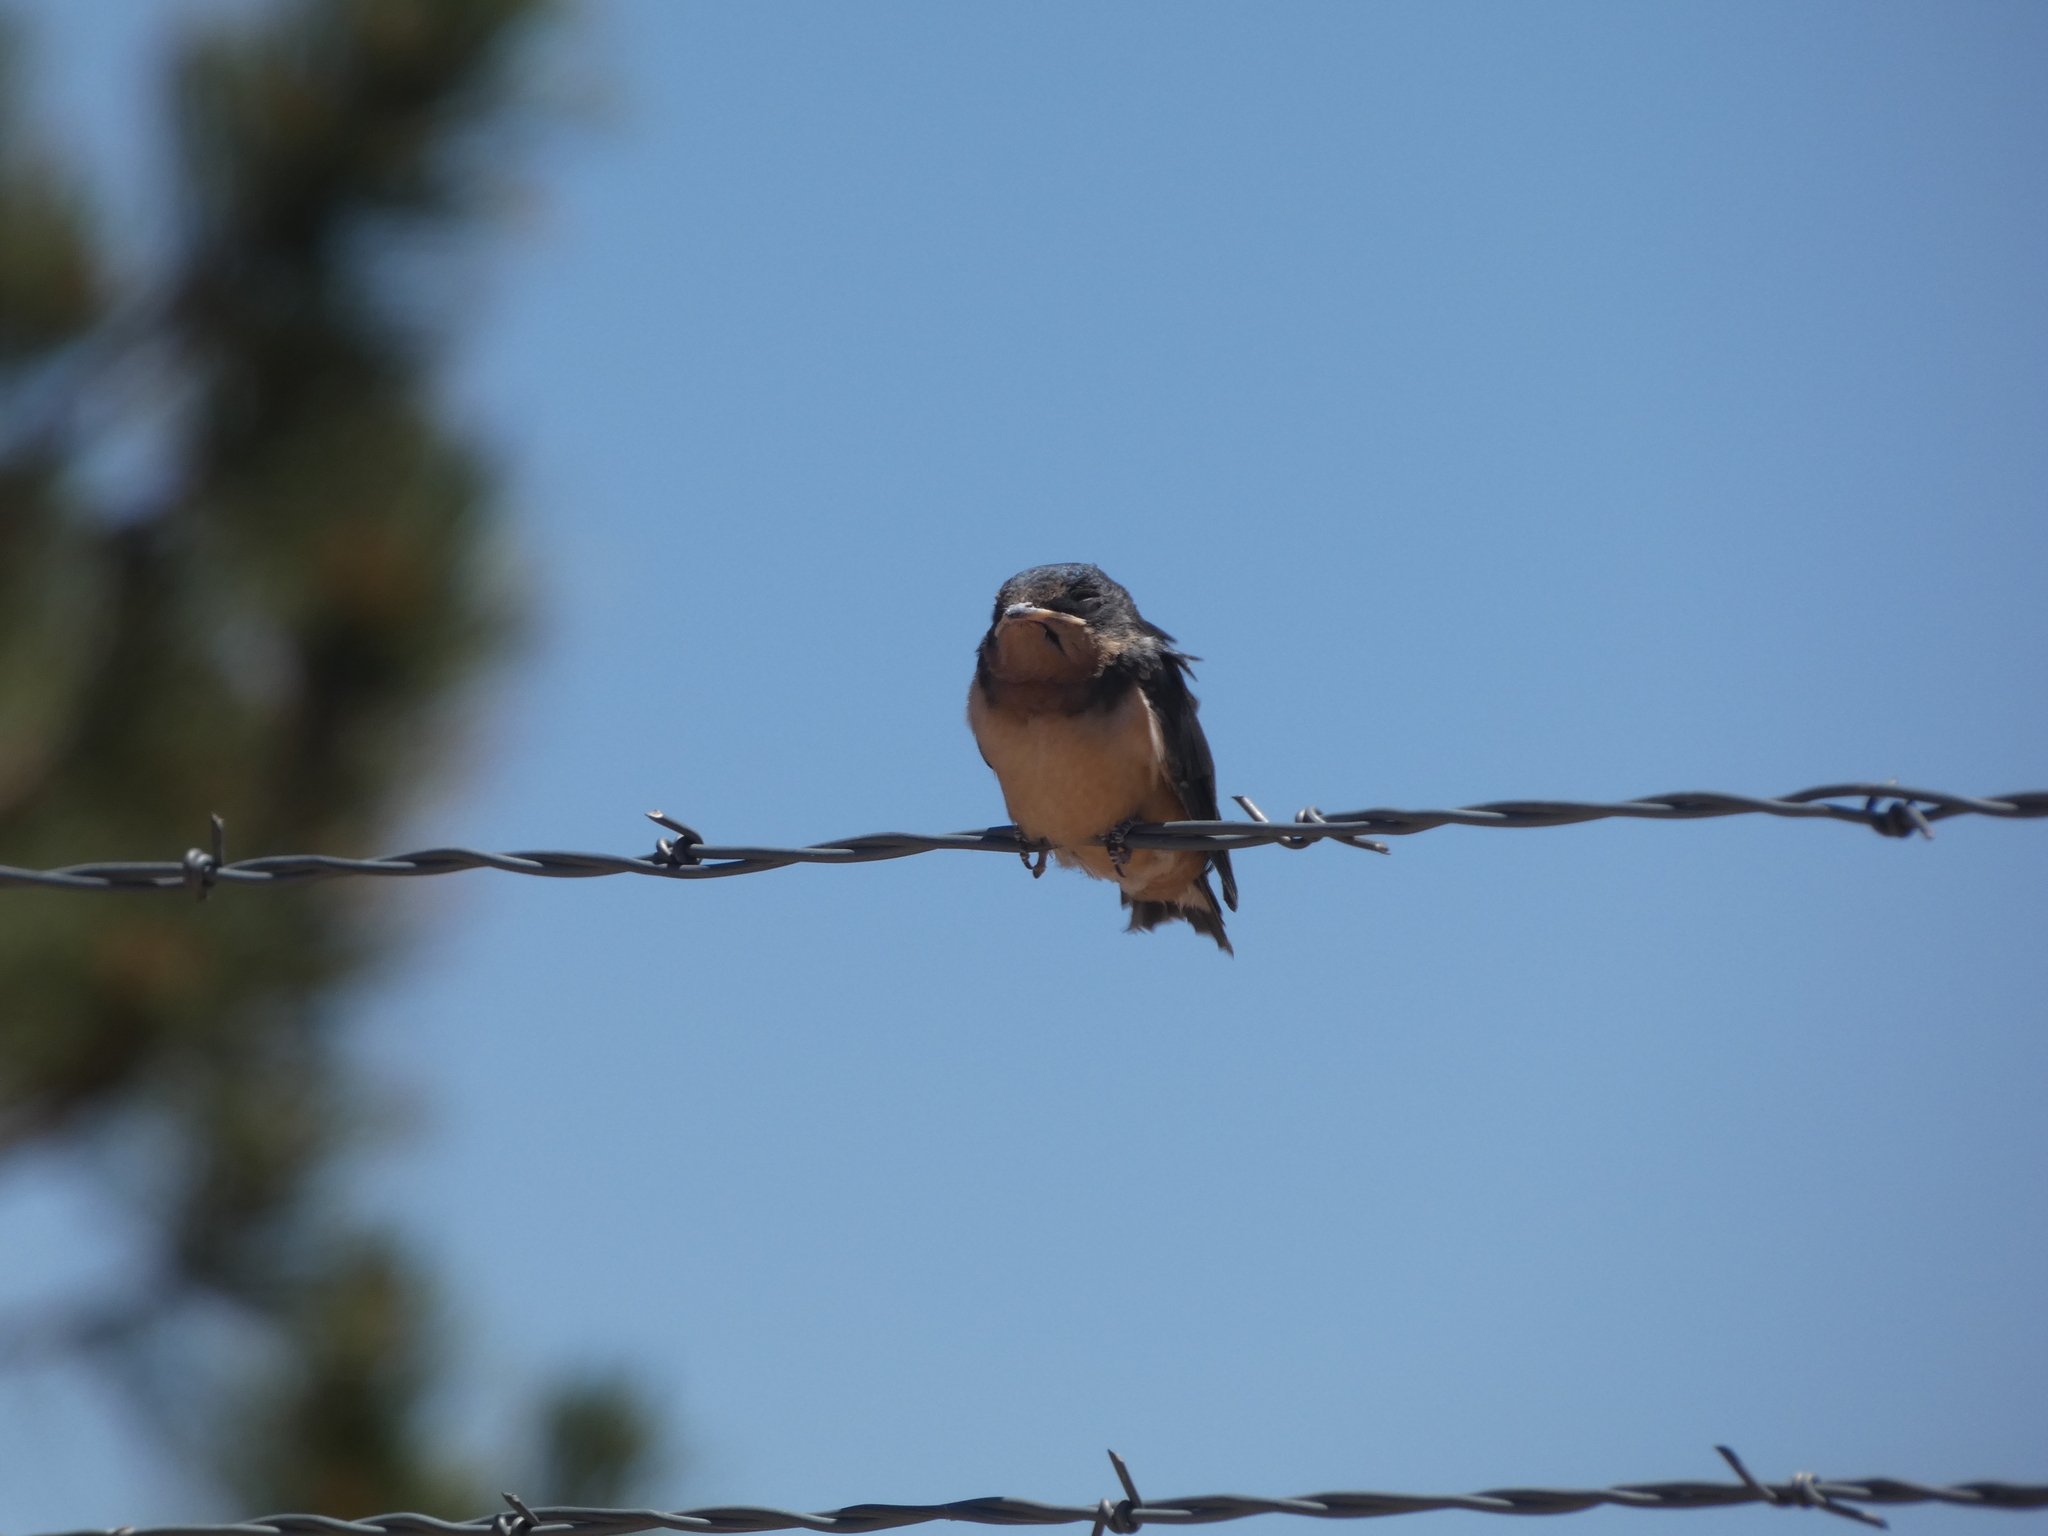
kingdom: Animalia
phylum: Chordata
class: Aves
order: Passeriformes
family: Hirundinidae
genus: Hirundo
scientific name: Hirundo rustica
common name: Barn swallow
